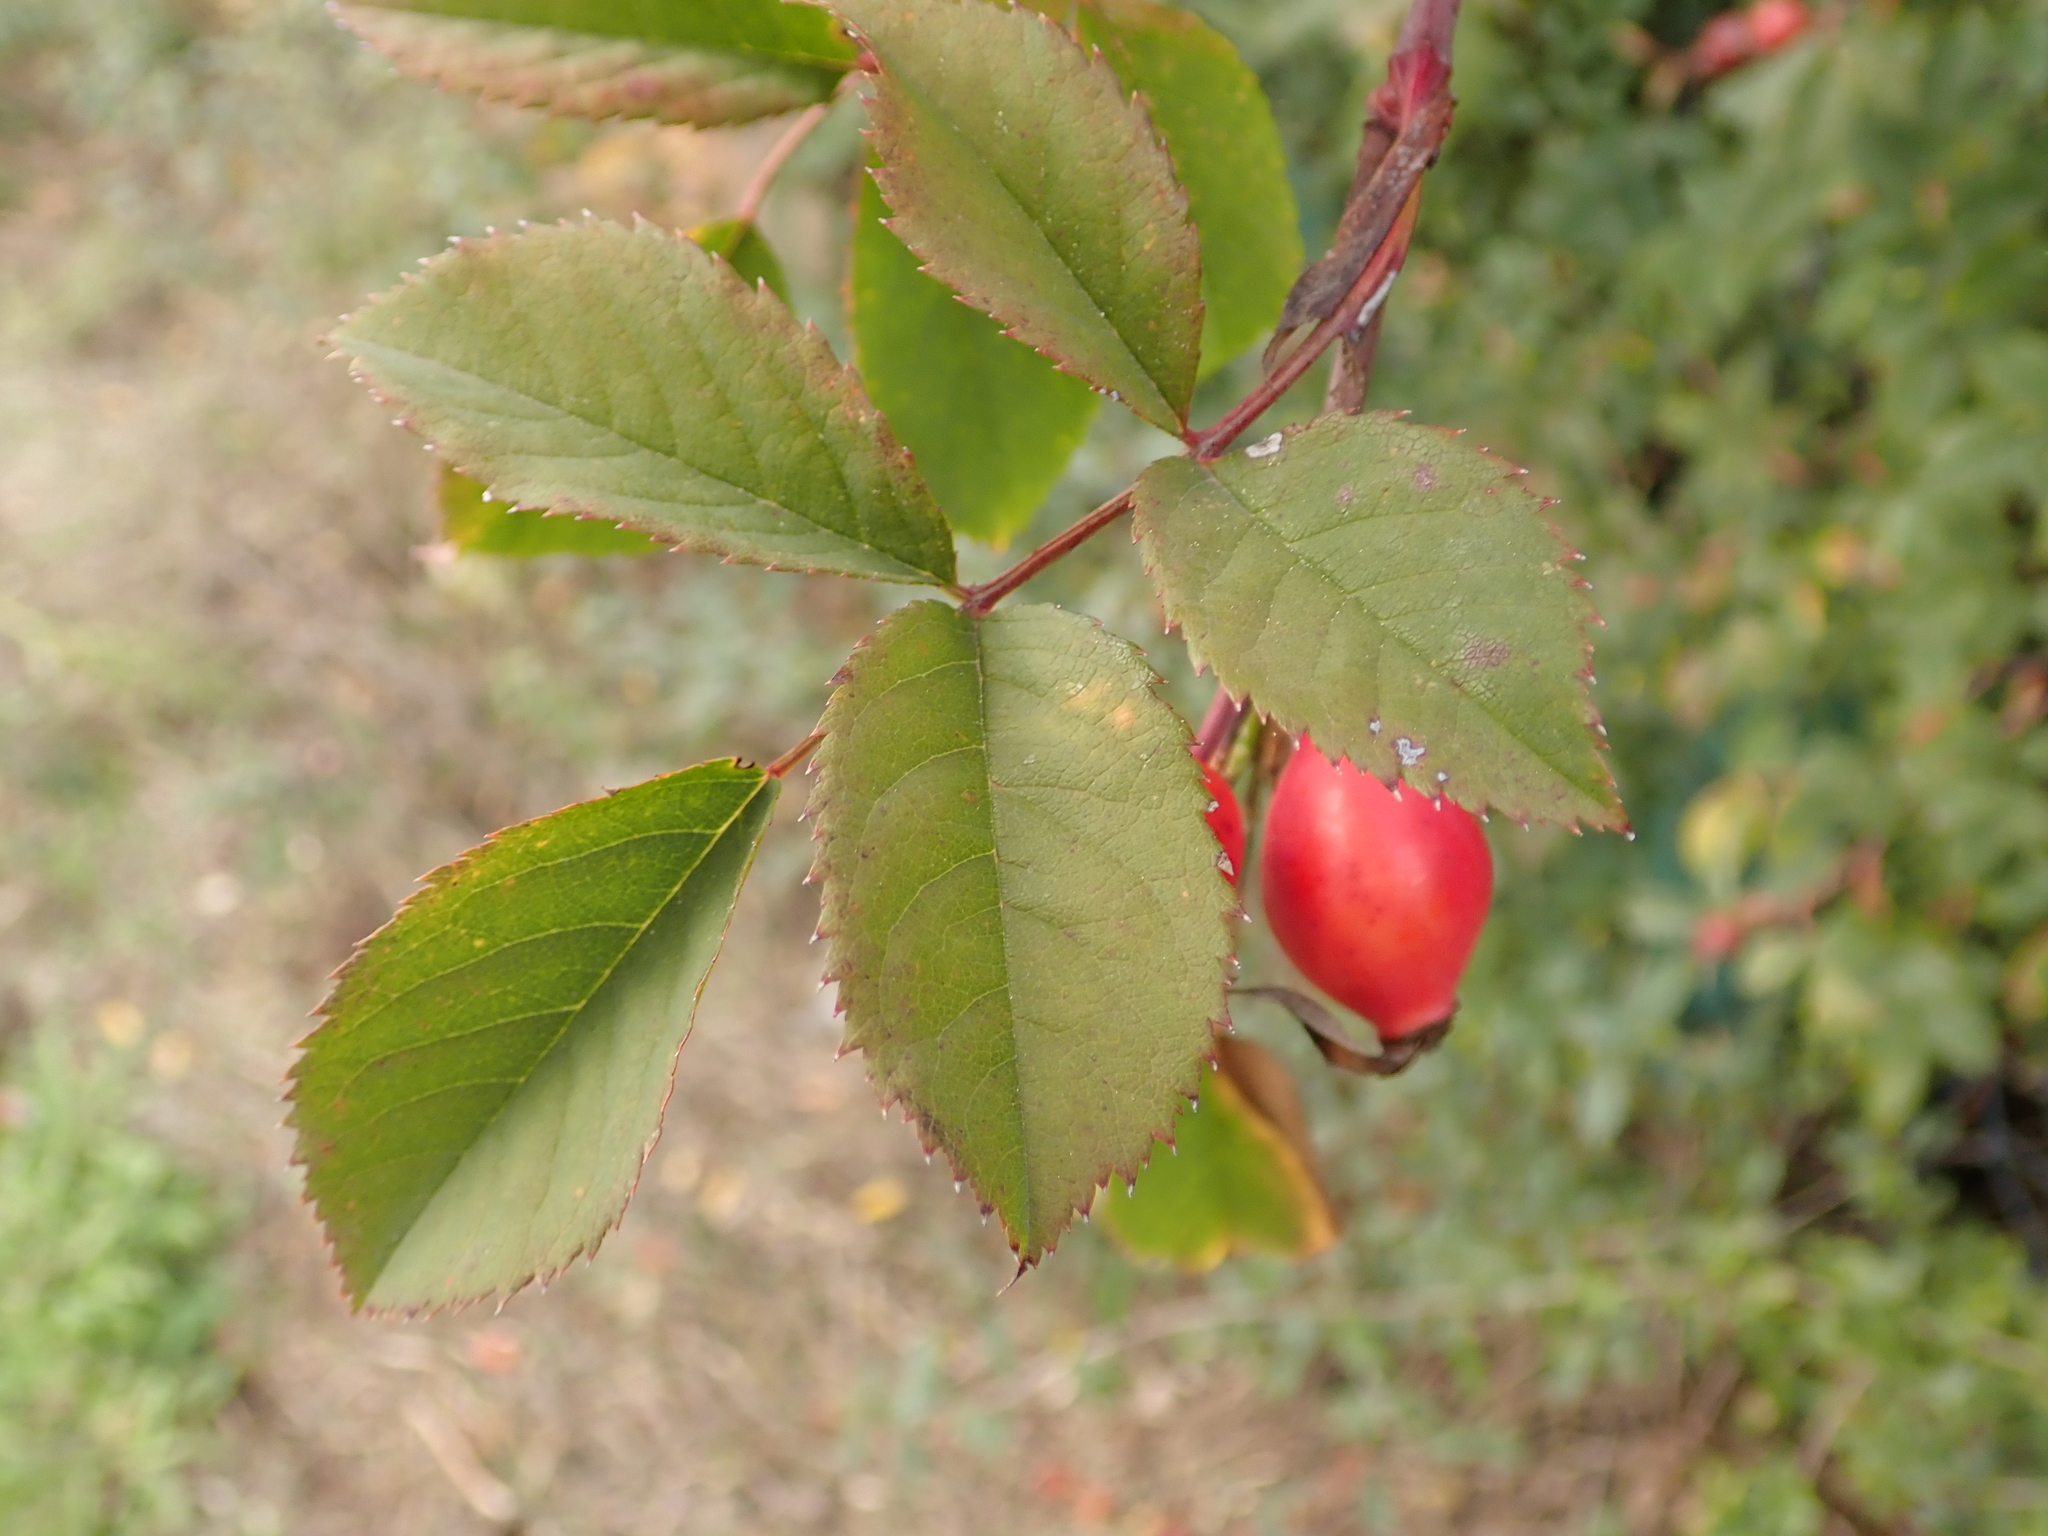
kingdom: Plantae
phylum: Tracheophyta
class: Magnoliopsida
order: Rosales
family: Rosaceae
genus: Rosa
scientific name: Rosa canina
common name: Dog rose
